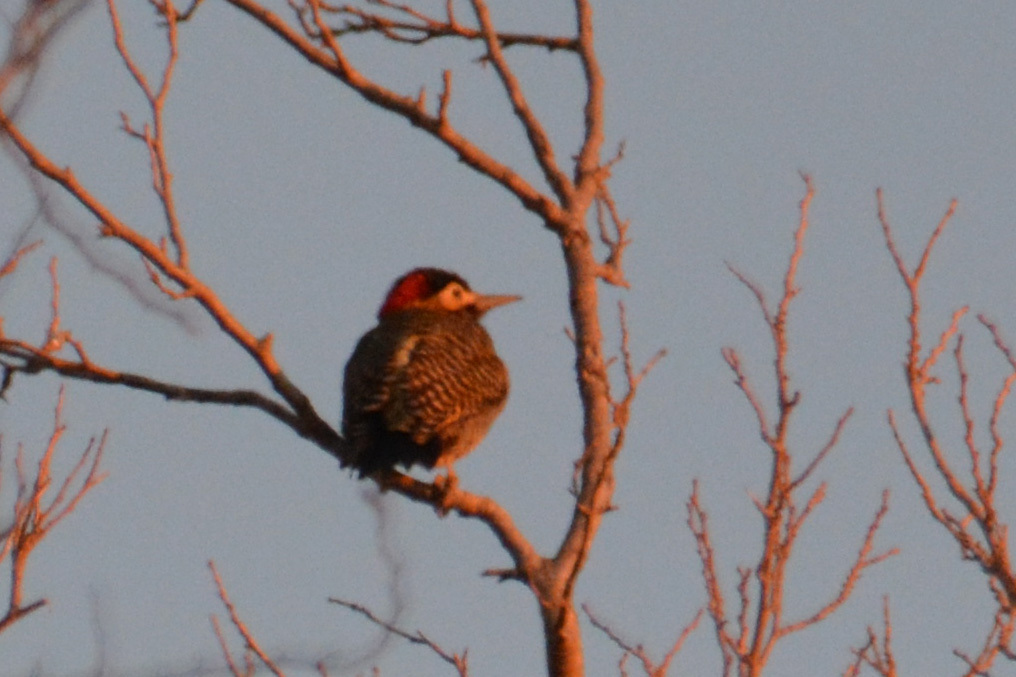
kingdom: Animalia
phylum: Chordata
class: Aves
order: Piciformes
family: Picidae
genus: Colaptes
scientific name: Colaptes melanochloros
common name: Green-barred woodpecker
